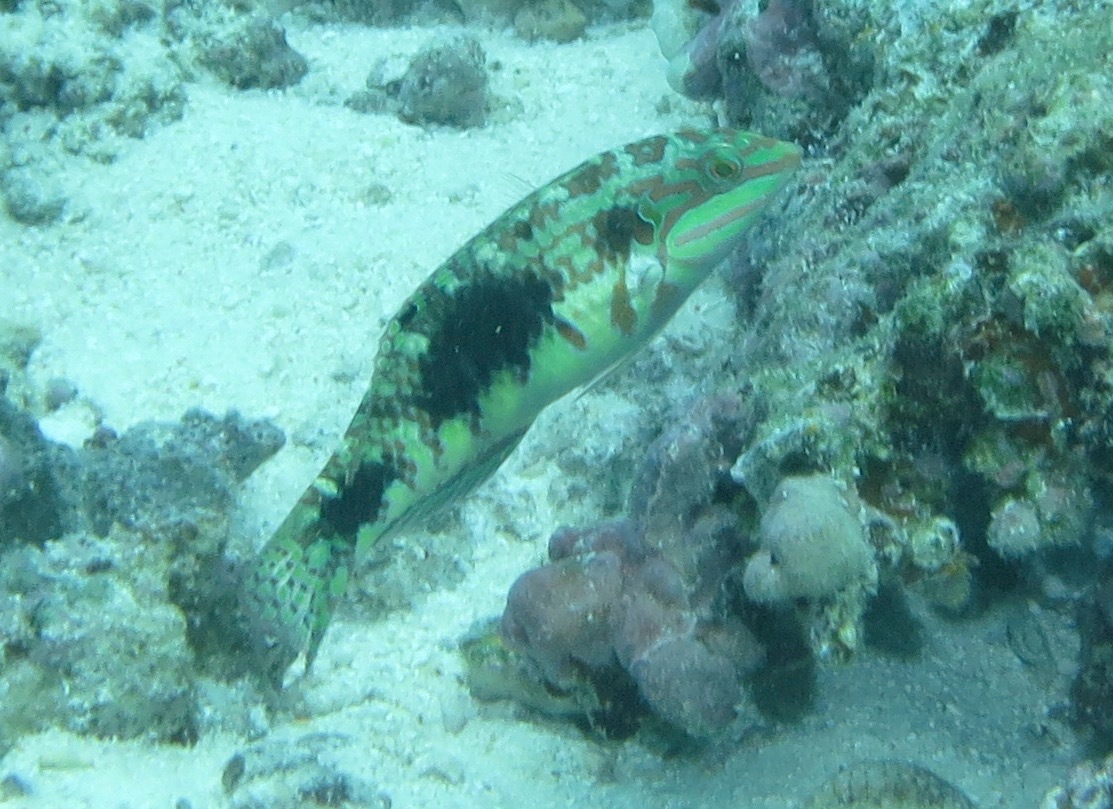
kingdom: Animalia
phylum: Chordata
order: Perciformes
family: Labridae
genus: Halichoeres
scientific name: Halichoeres margaritaceus
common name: Pink-belly wrasse
